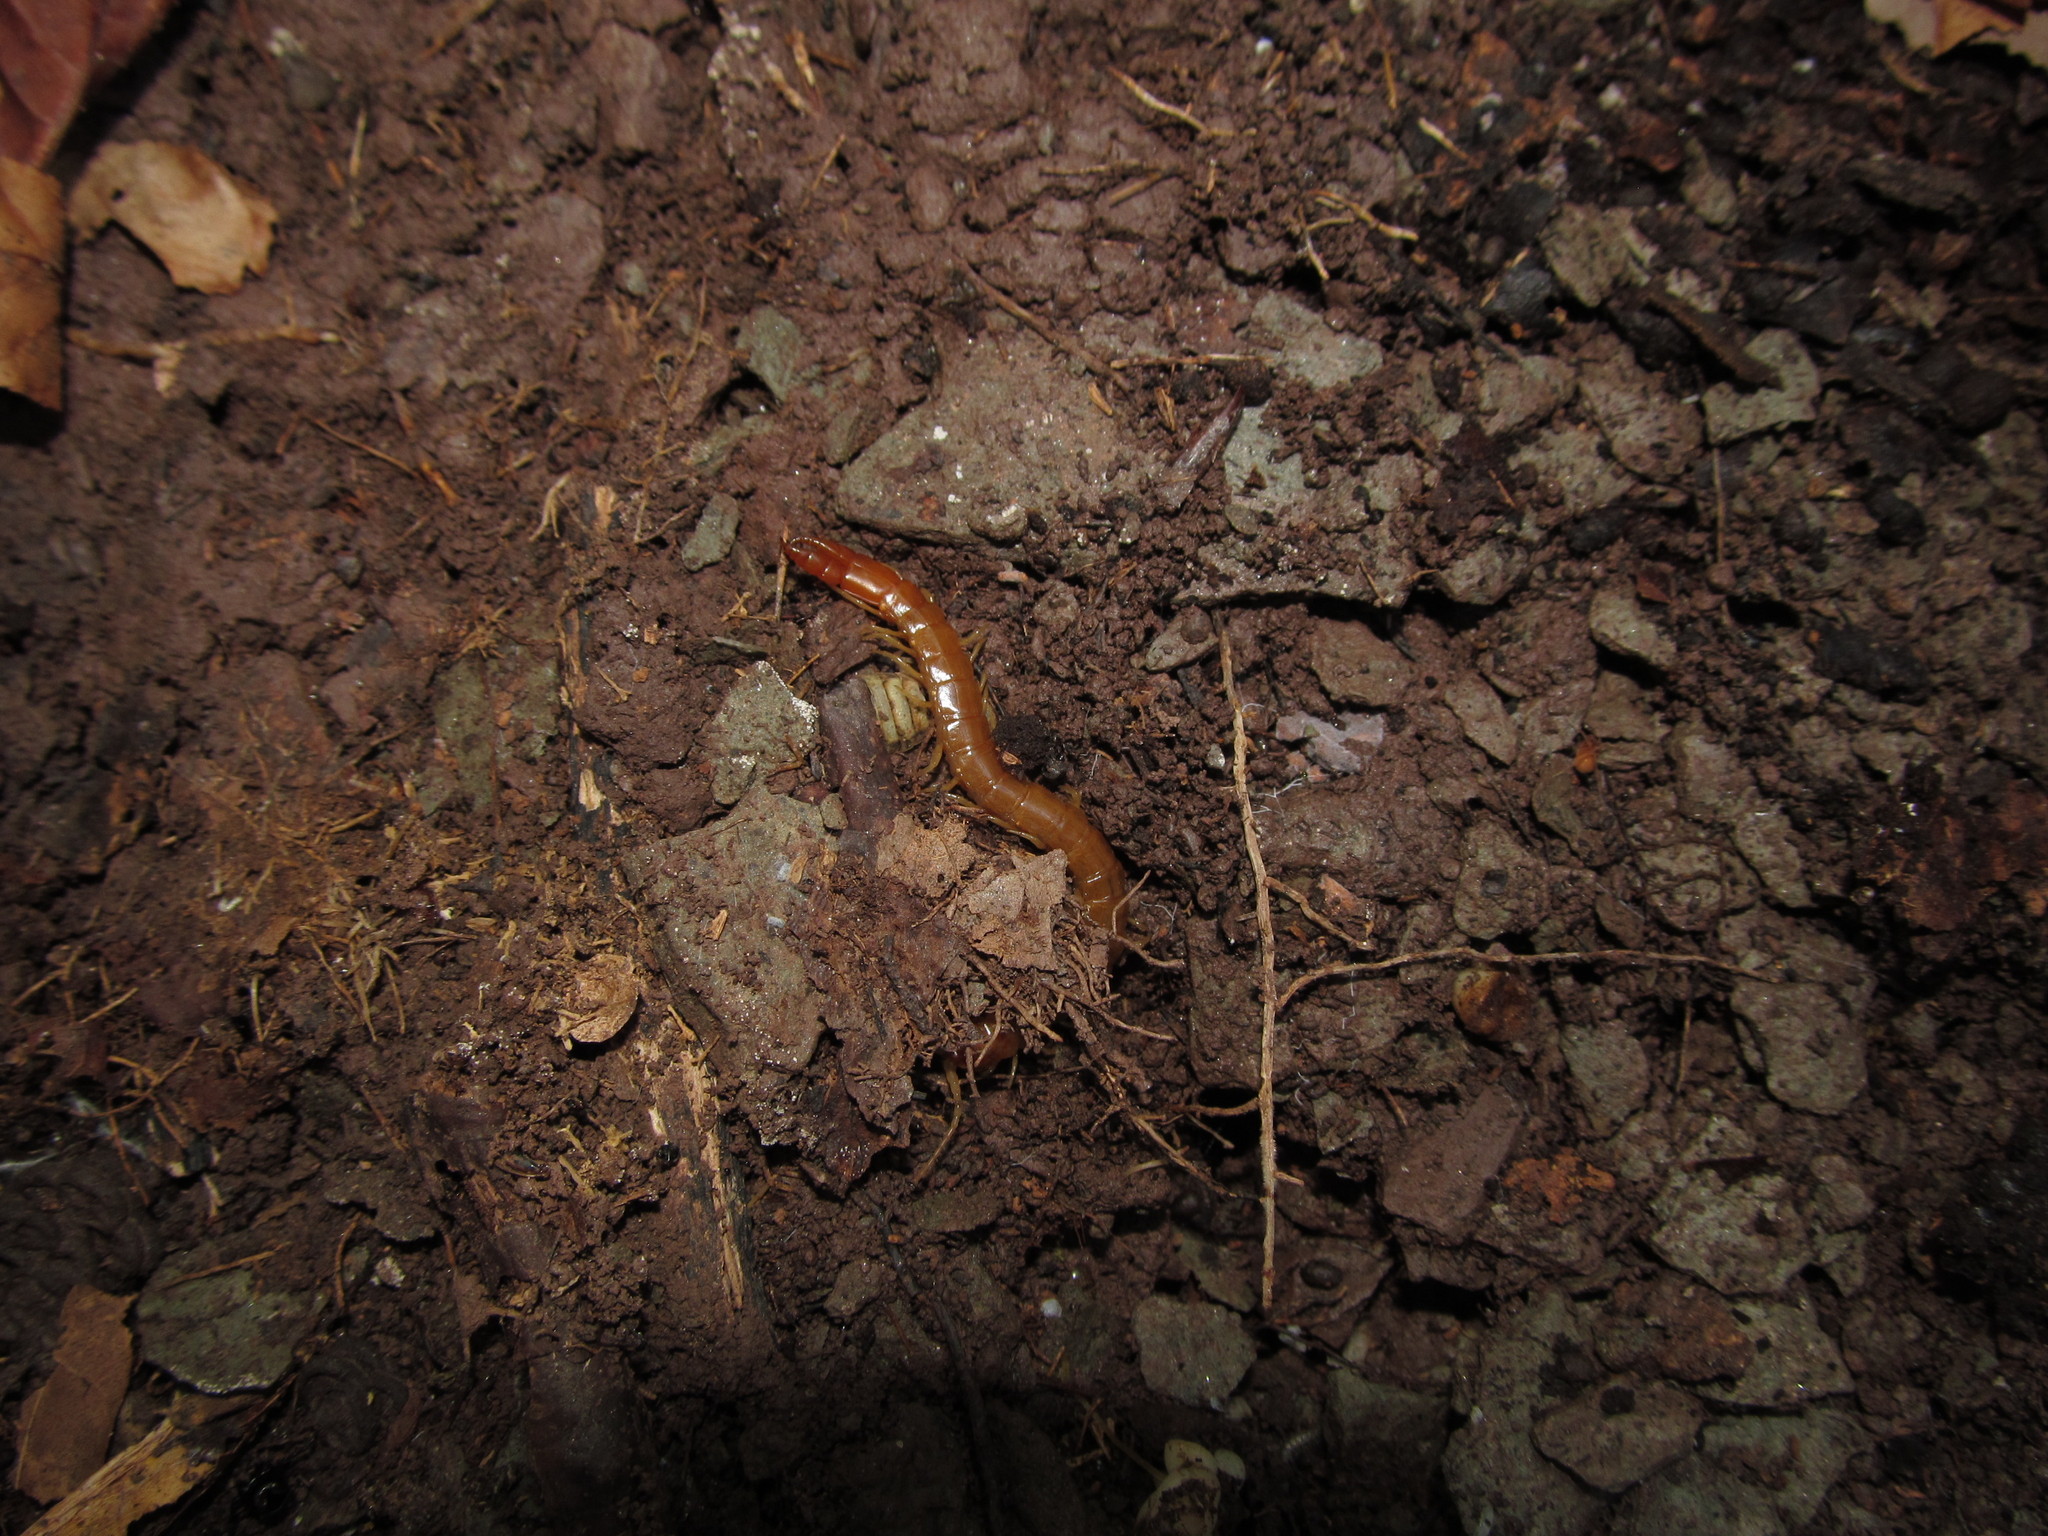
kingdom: Animalia
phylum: Arthropoda
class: Chilopoda
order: Scolopendromorpha
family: Cryptopidae
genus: Theatops
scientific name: Theatops posticus
